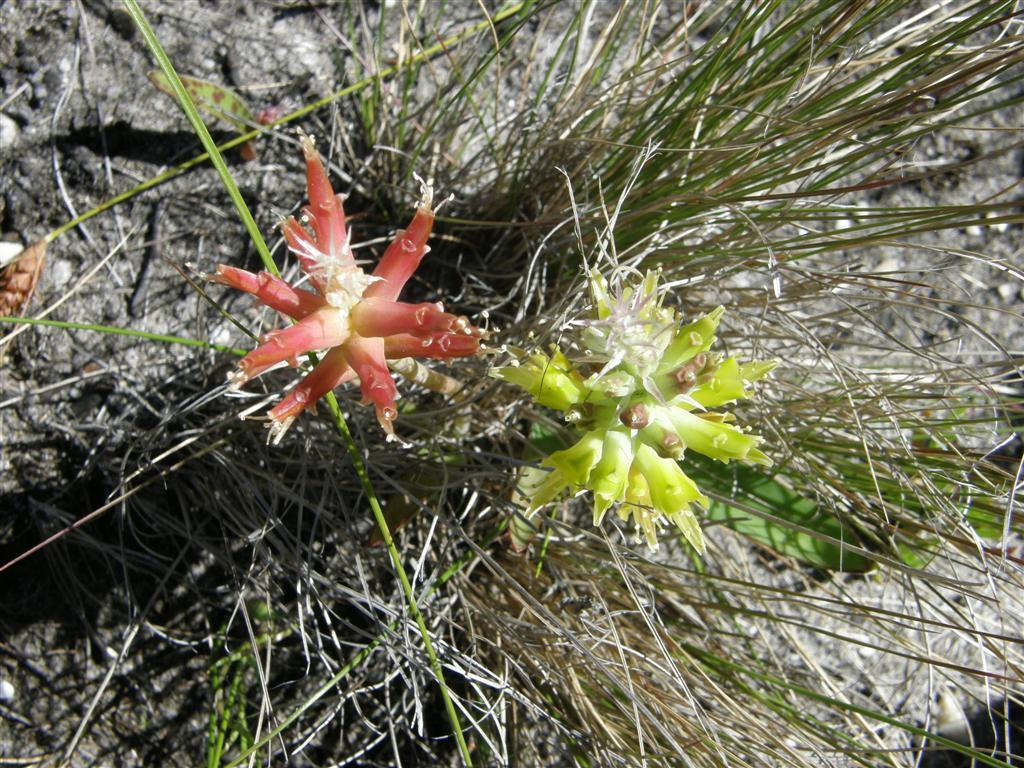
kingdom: Plantae
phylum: Tracheophyta
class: Liliopsida
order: Asparagales
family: Asparagaceae
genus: Lachenalia
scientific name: Lachenalia orchioides
